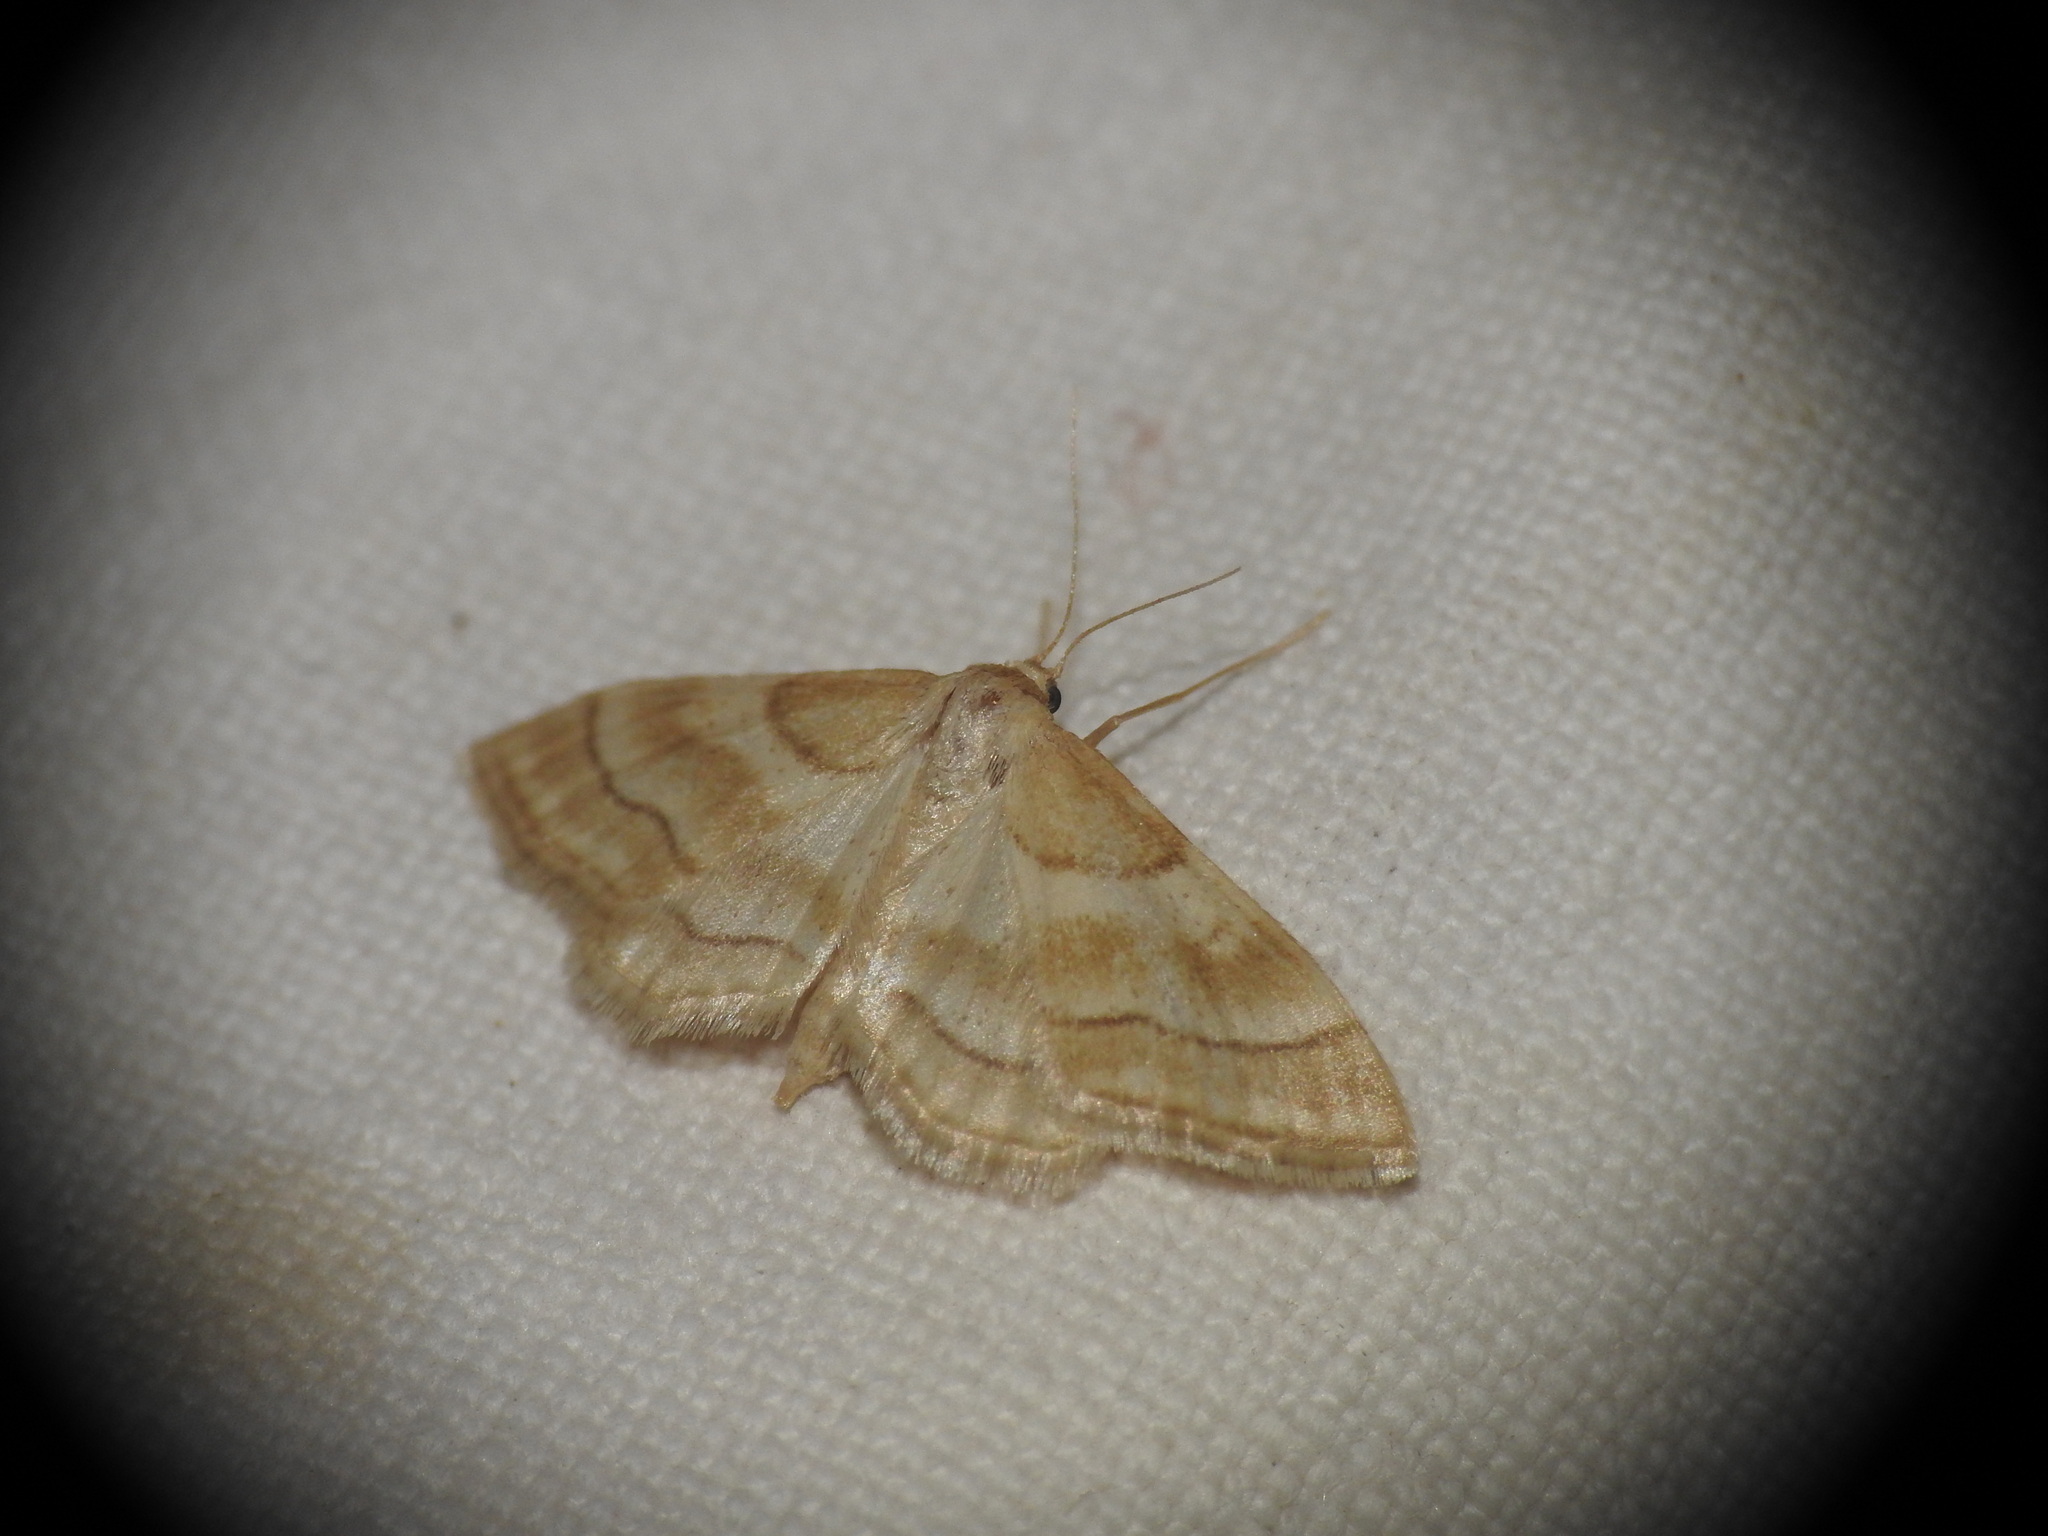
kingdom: Animalia
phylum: Arthropoda
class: Insecta
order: Lepidoptera
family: Geometridae
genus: Idaea
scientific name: Idaea circuitaria
